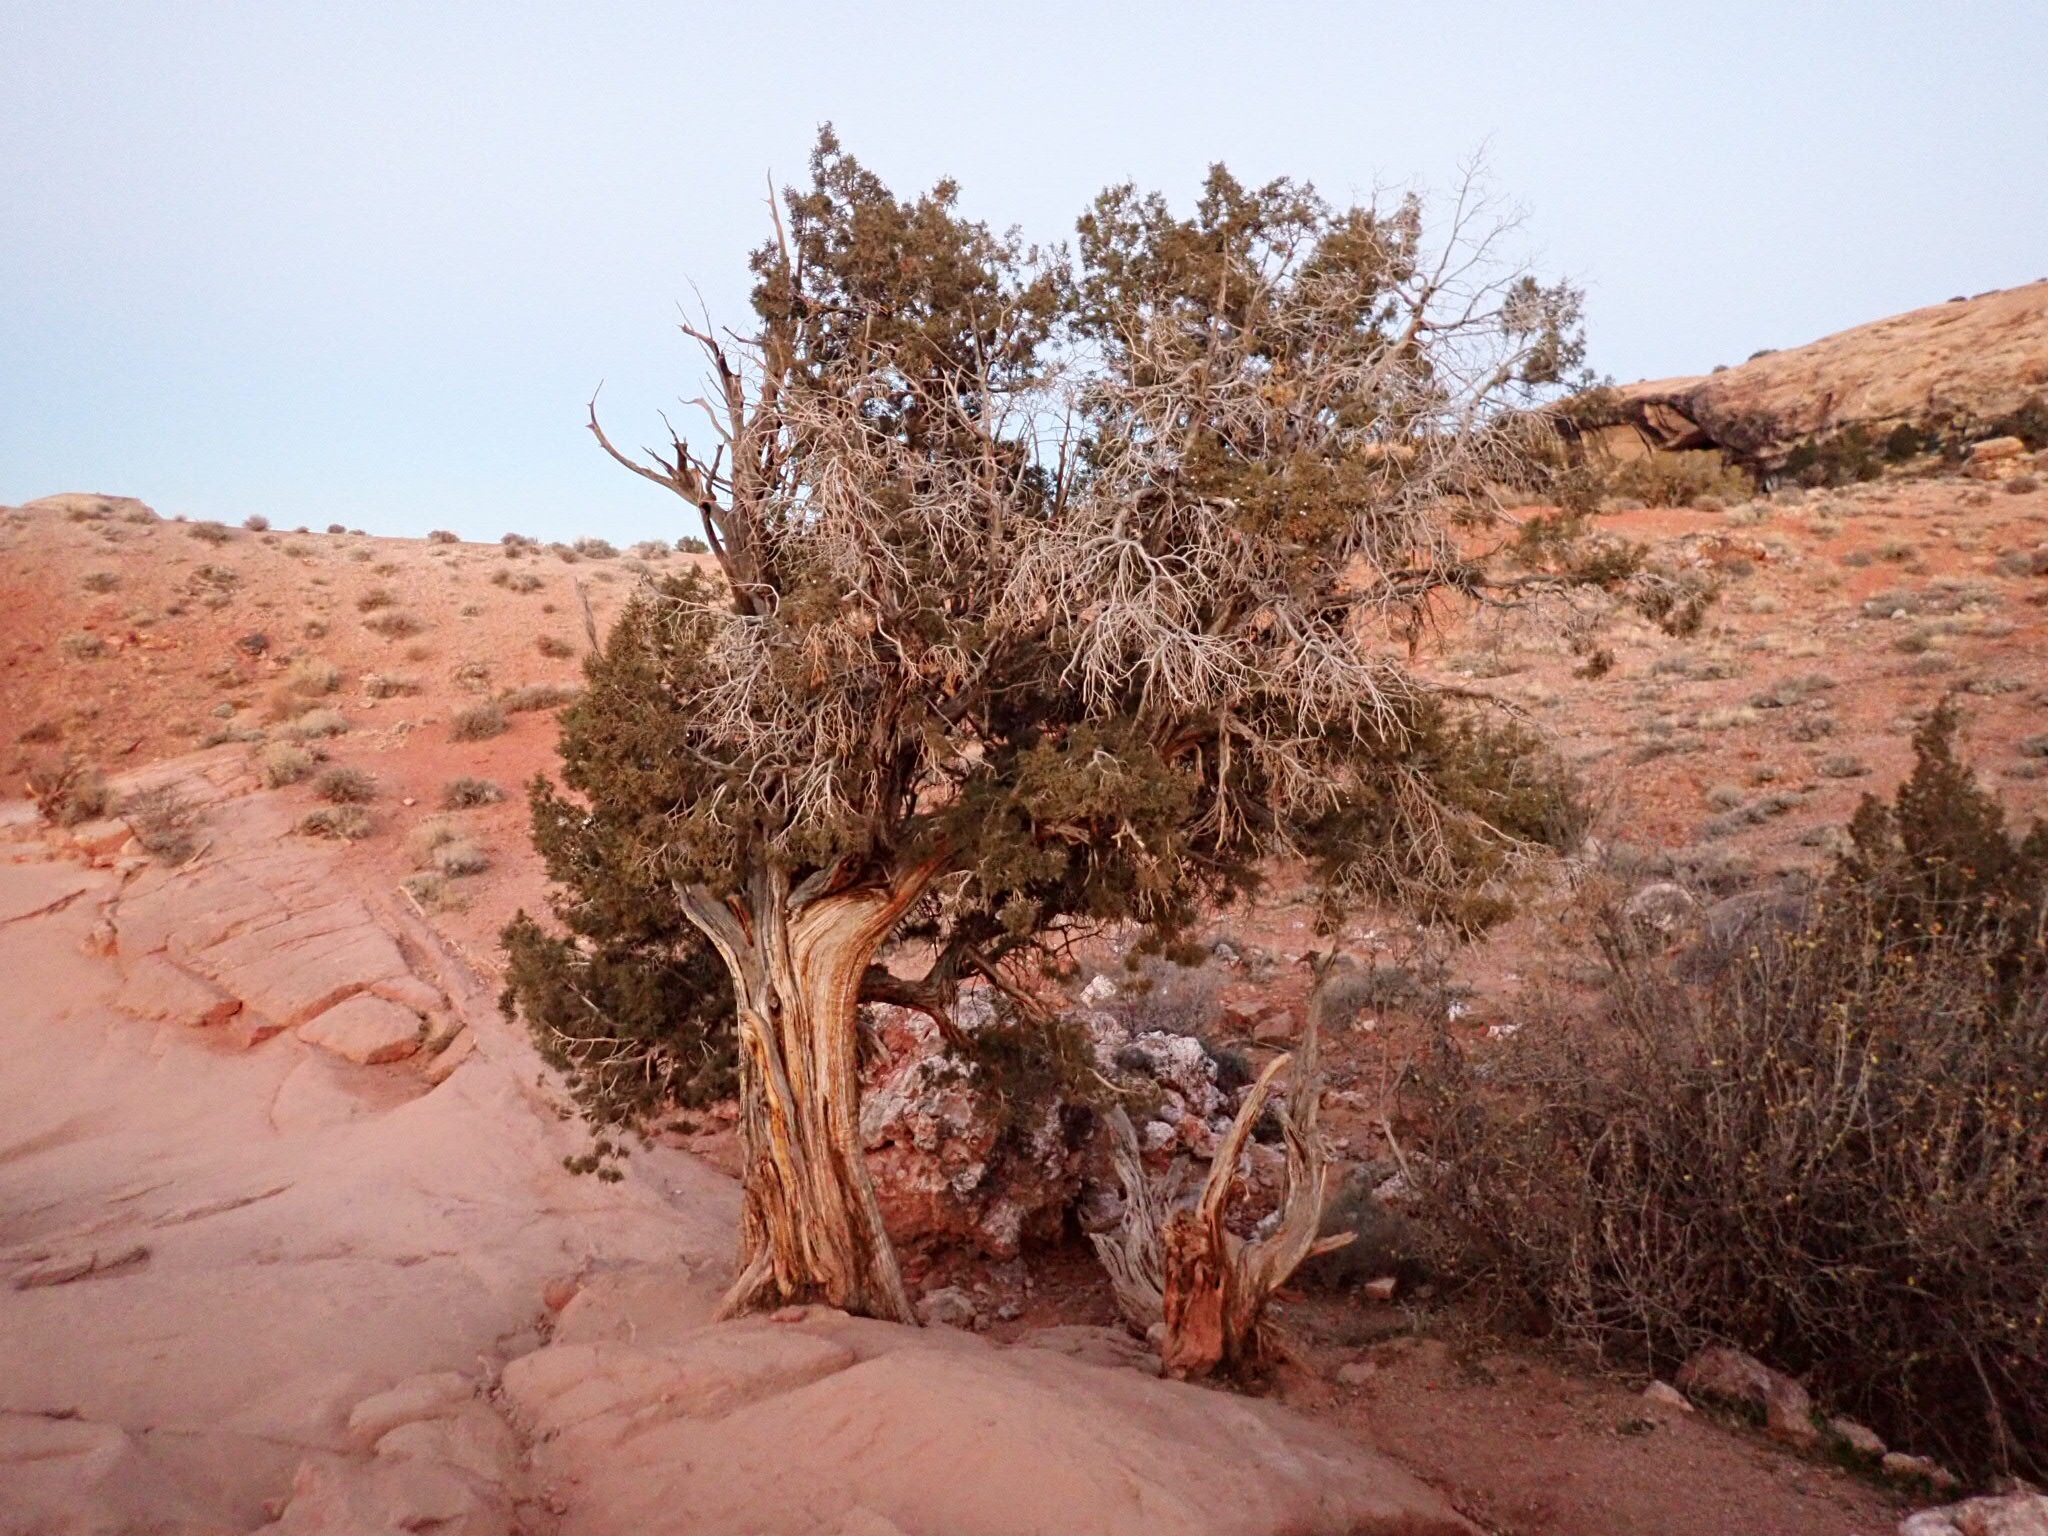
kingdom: Plantae
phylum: Tracheophyta
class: Pinopsida
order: Pinales
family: Cupressaceae
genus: Juniperus
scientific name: Juniperus osteosperma
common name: Utah juniper
